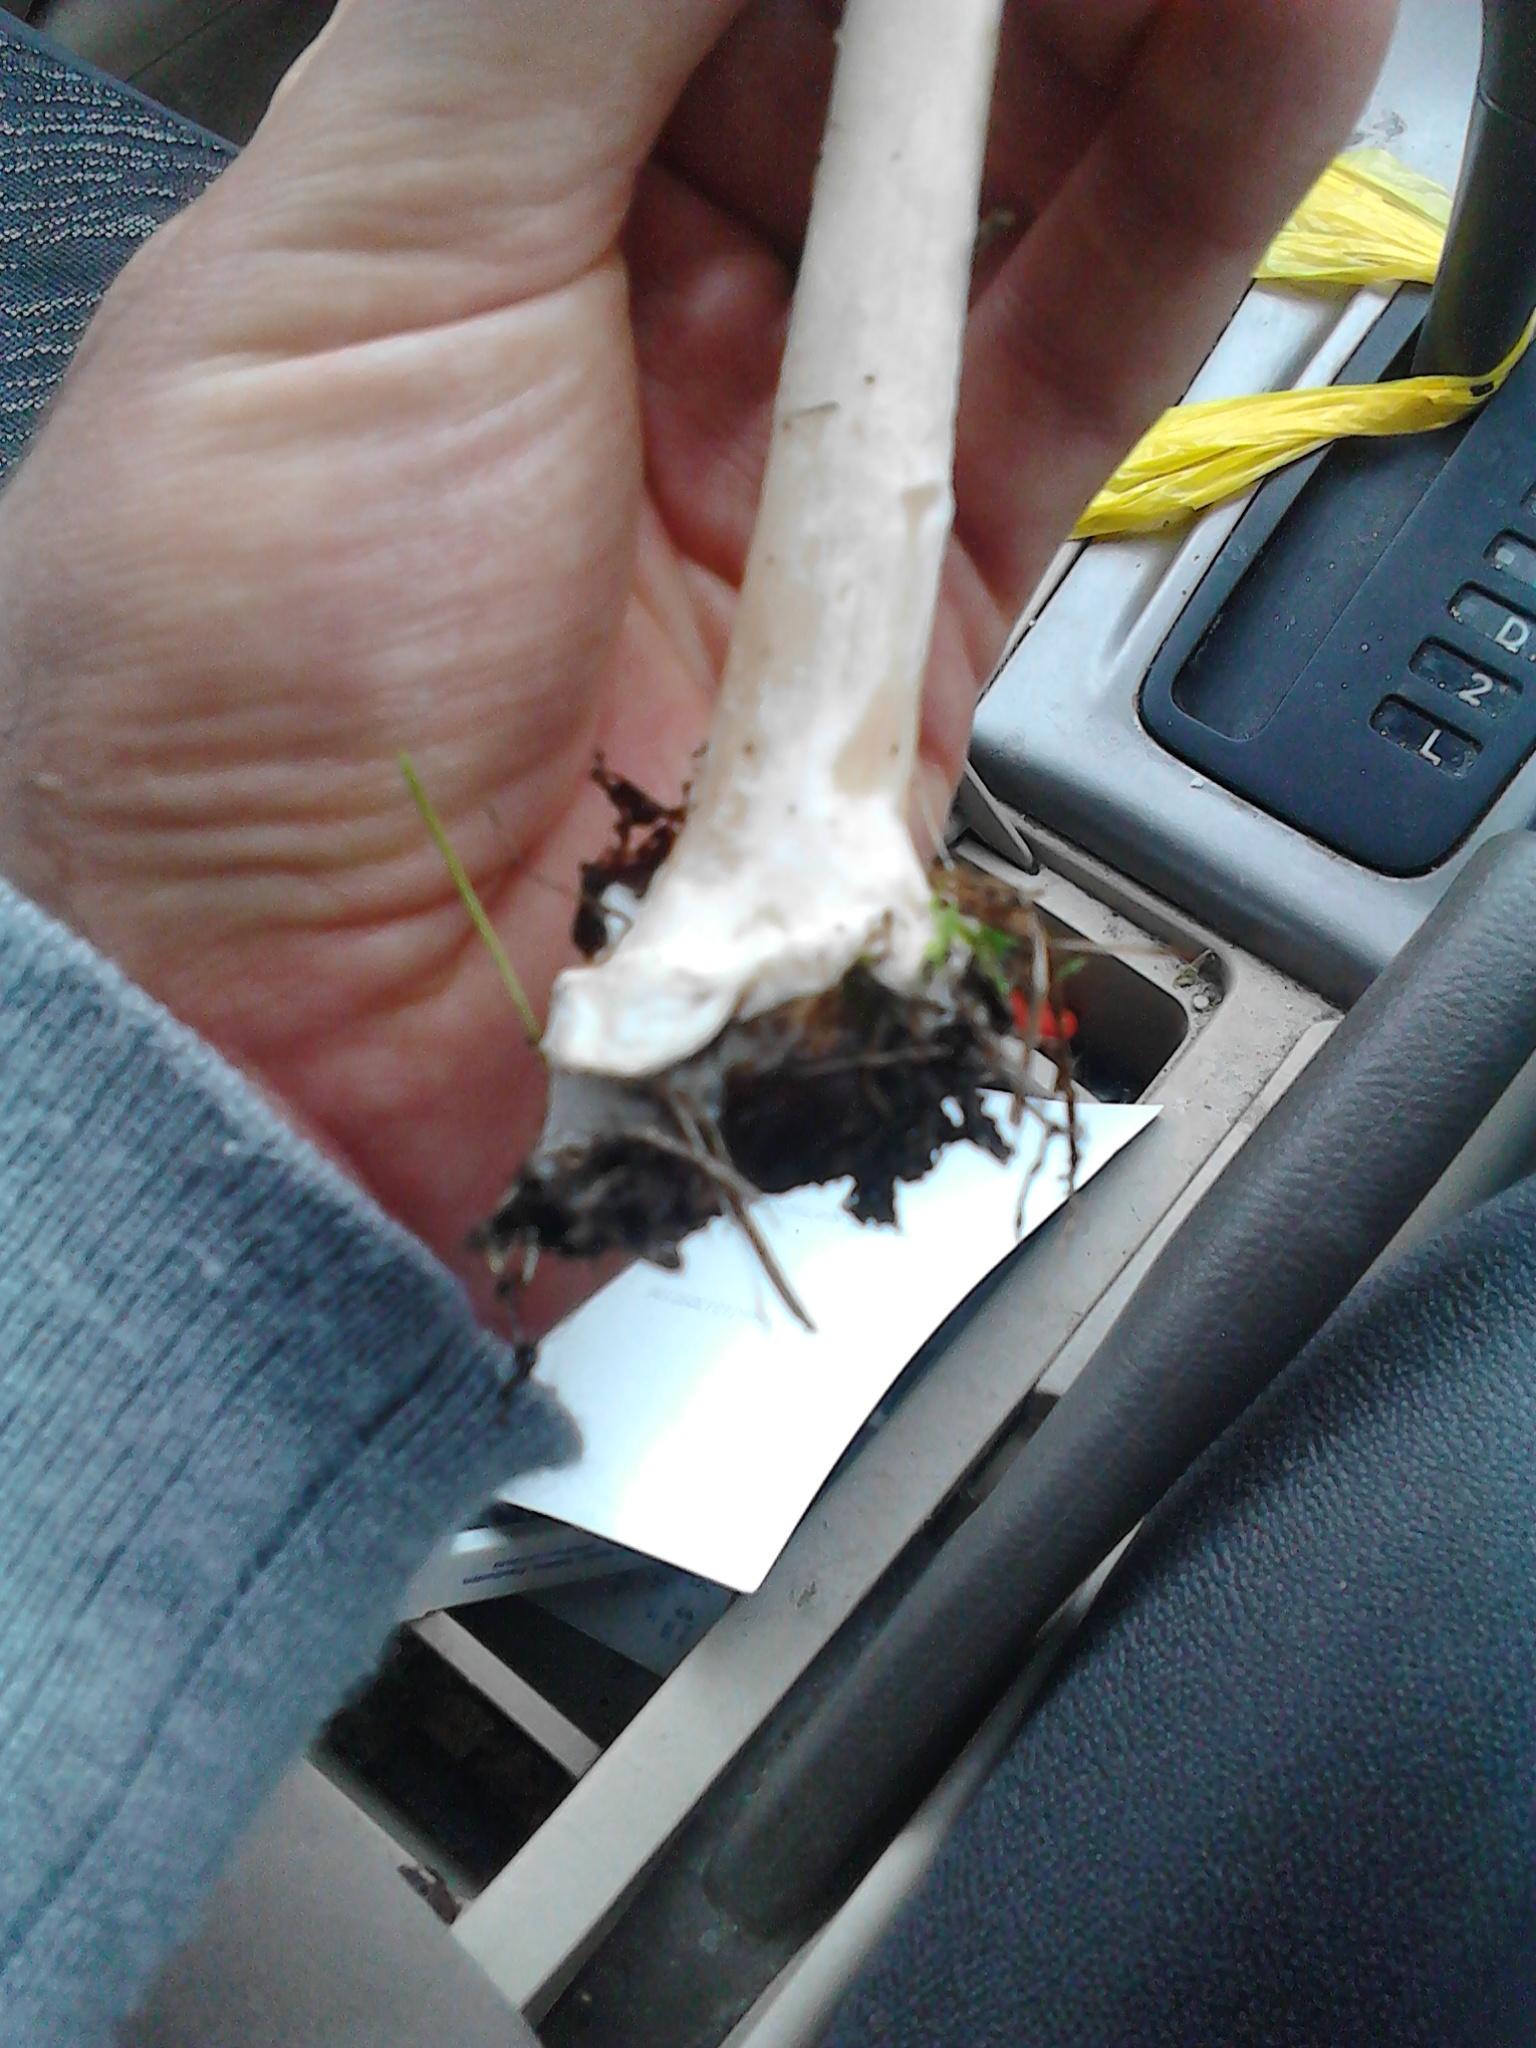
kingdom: Fungi
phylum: Basidiomycota
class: Agaricomycetes
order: Agaricales
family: Pluteaceae
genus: Volvopluteus
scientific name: Volvopluteus gloiocephalus
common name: Stubble rosegill
